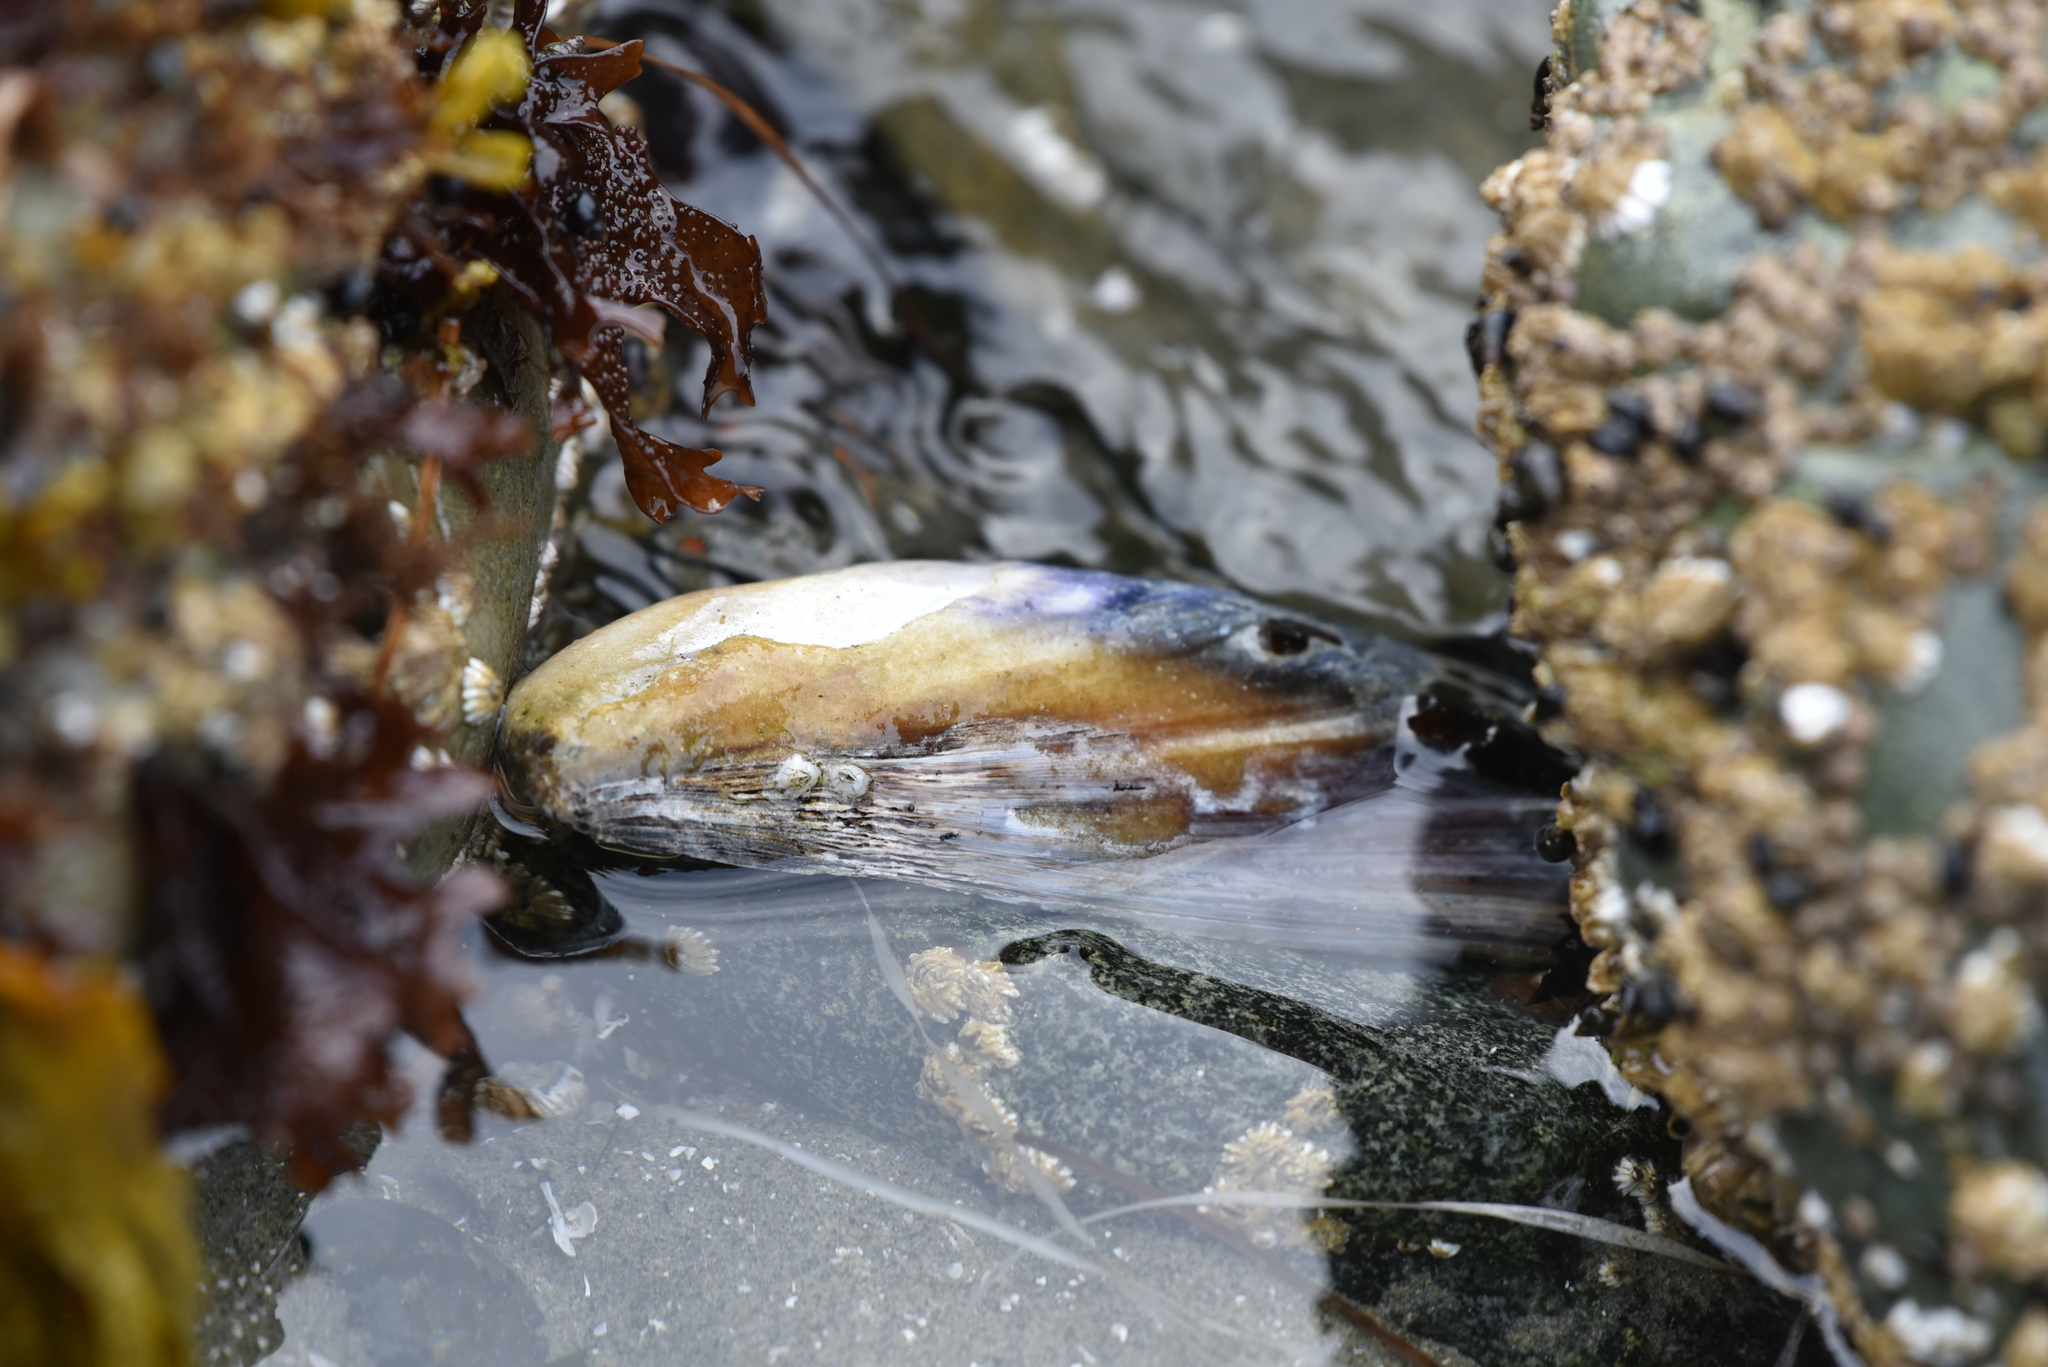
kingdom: Animalia
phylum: Mollusca
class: Bivalvia
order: Mytilida
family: Mytilidae
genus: Mytilus
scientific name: Mytilus californianus
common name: California mussel
